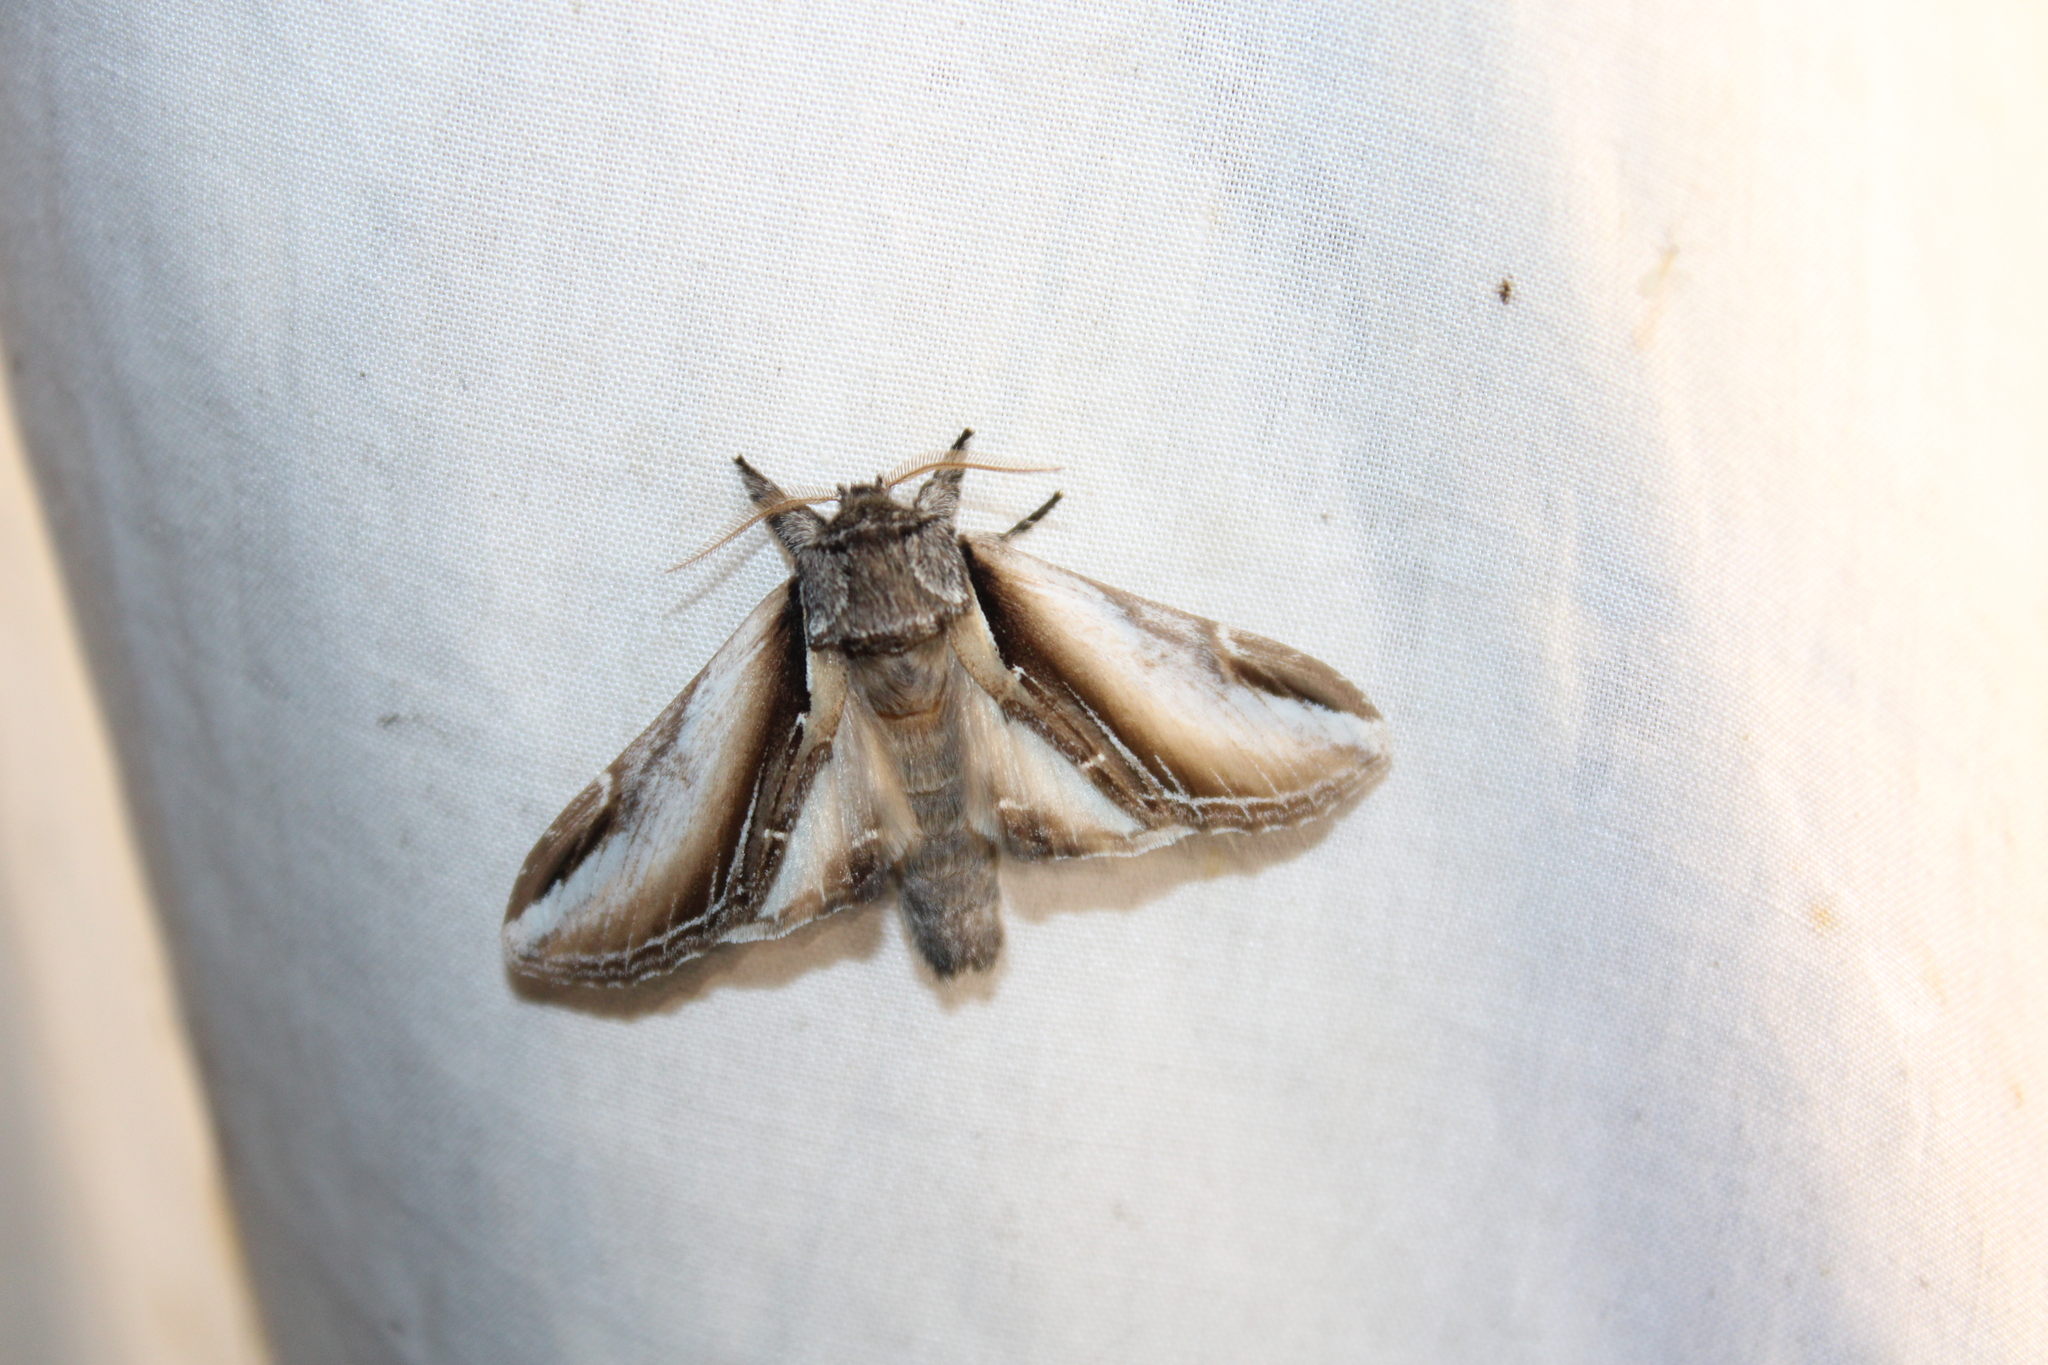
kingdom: Animalia
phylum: Arthropoda
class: Insecta
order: Lepidoptera
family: Notodontidae
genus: Pheosia
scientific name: Pheosia rimosa
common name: Black-rimmed prominent
